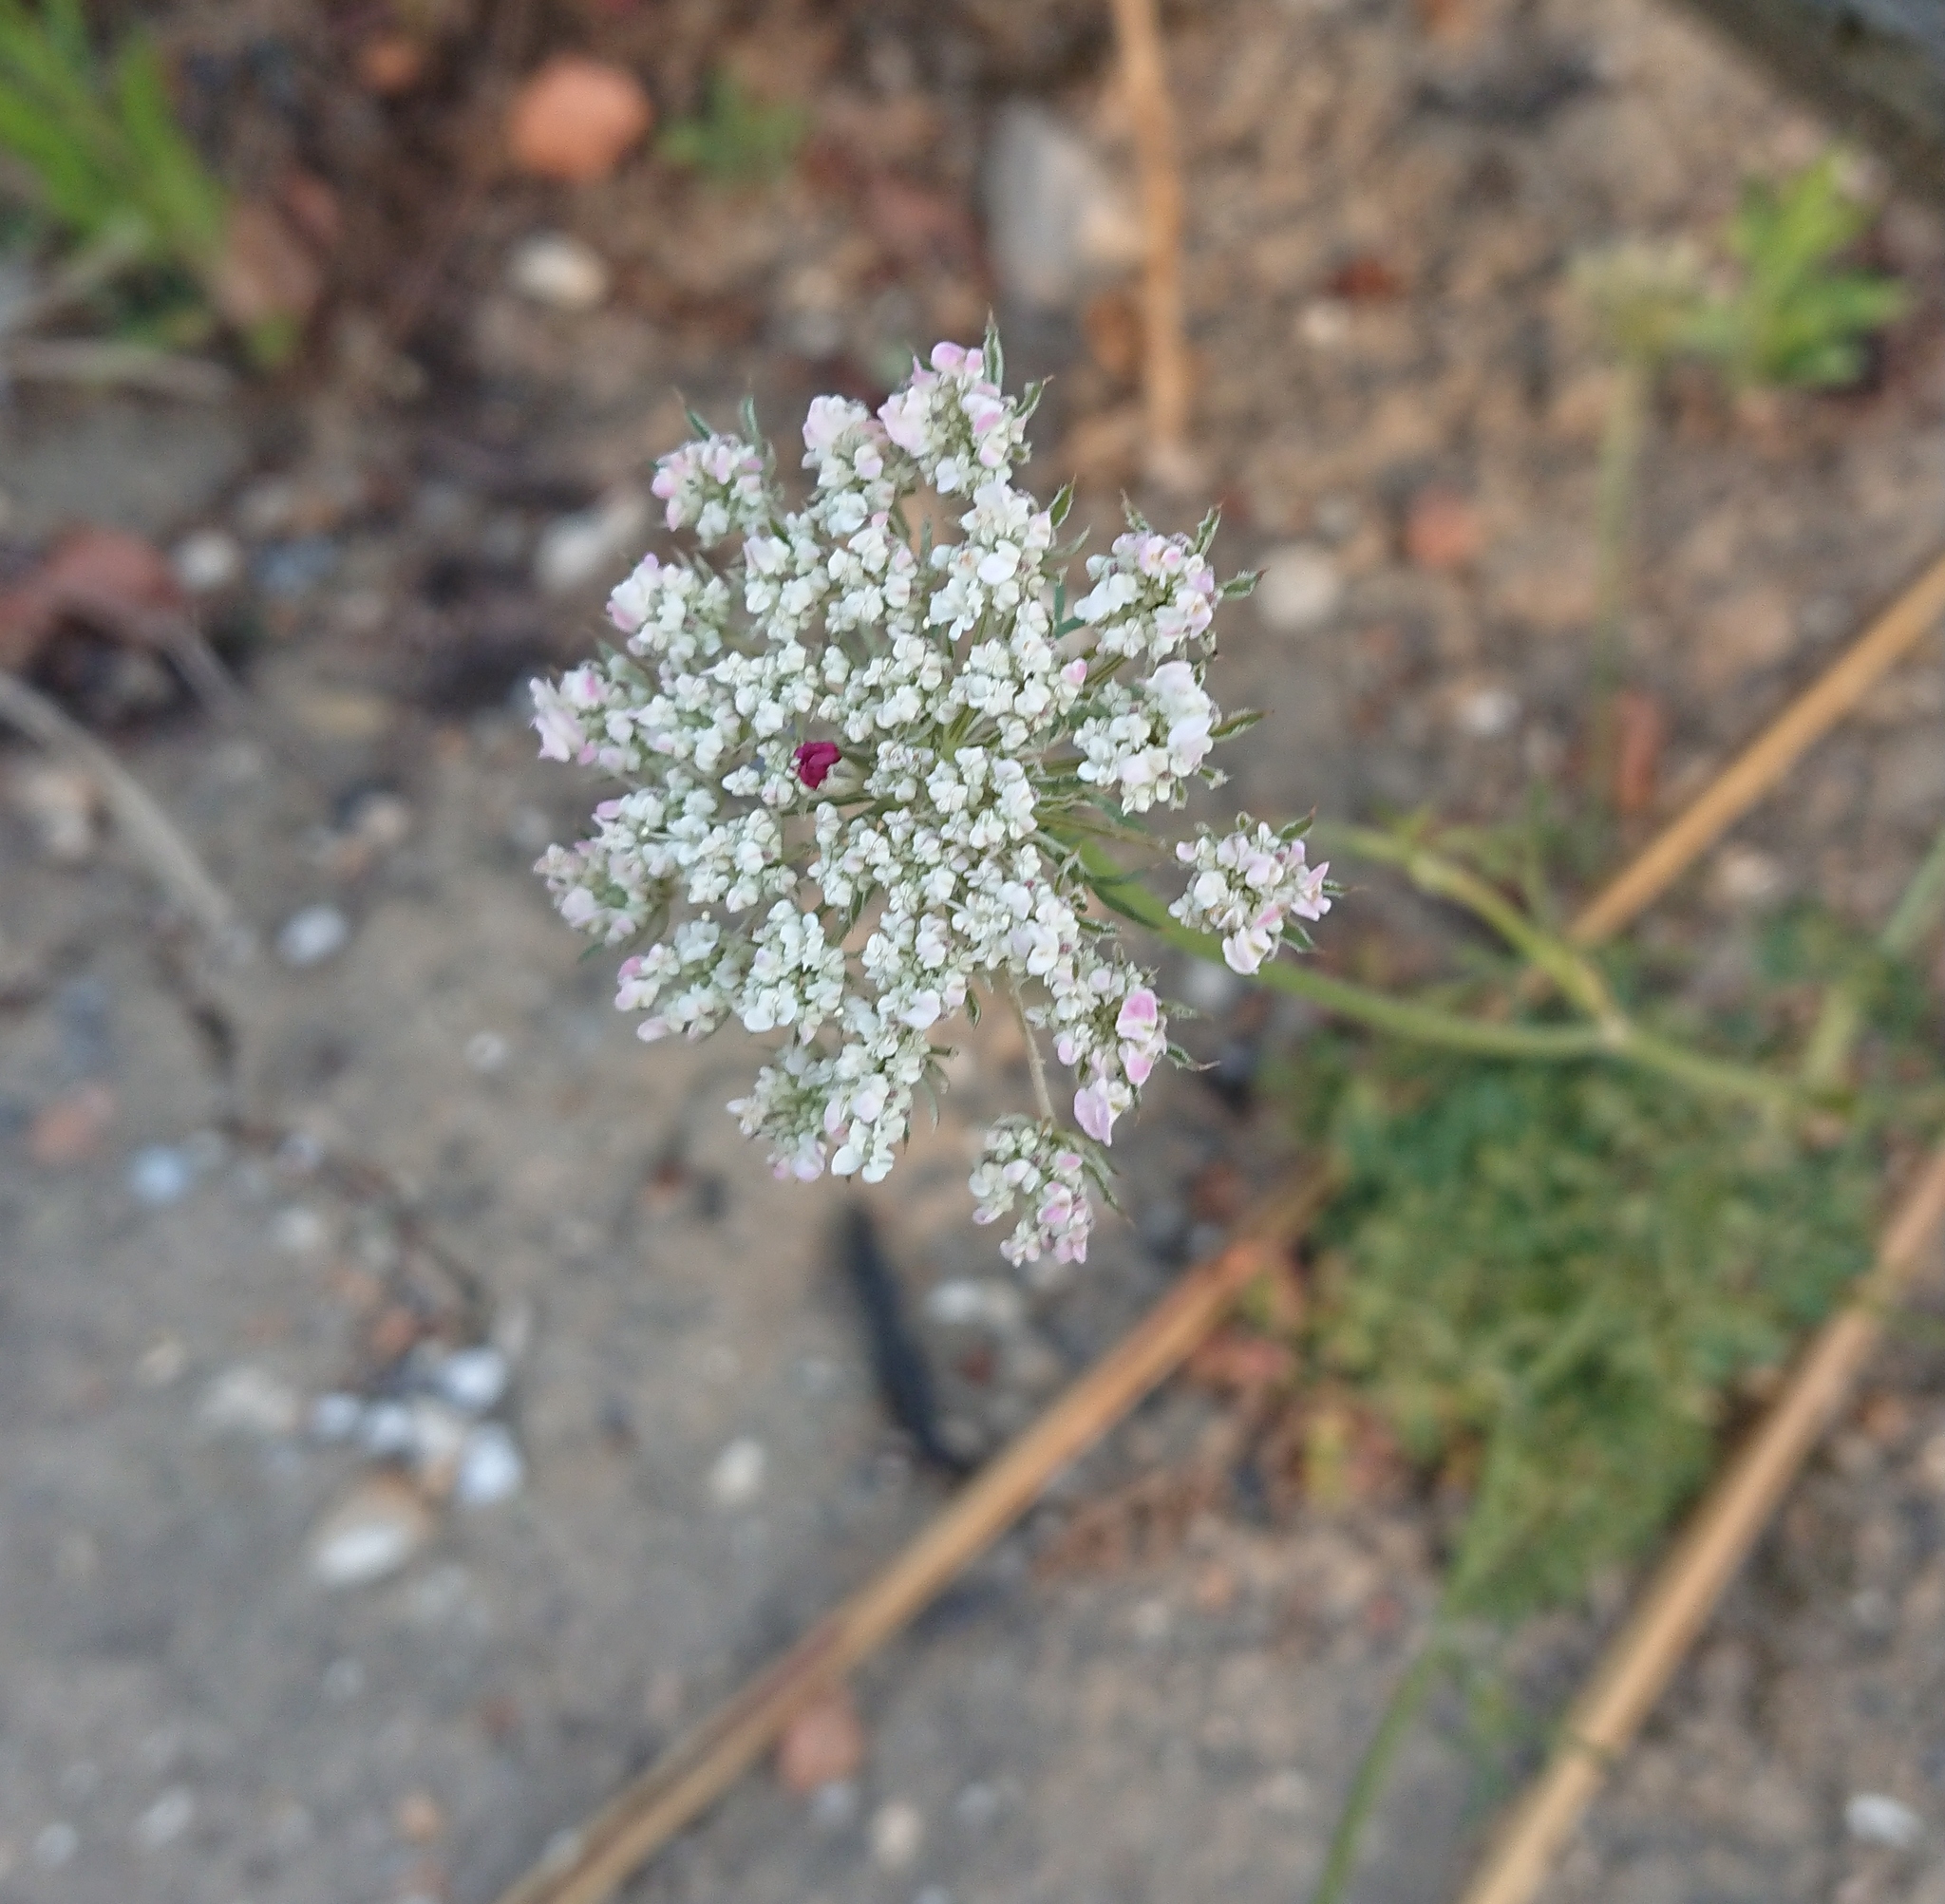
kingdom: Plantae
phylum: Tracheophyta
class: Magnoliopsida
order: Apiales
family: Apiaceae
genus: Daucus
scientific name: Daucus carota
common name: Wild carrot
